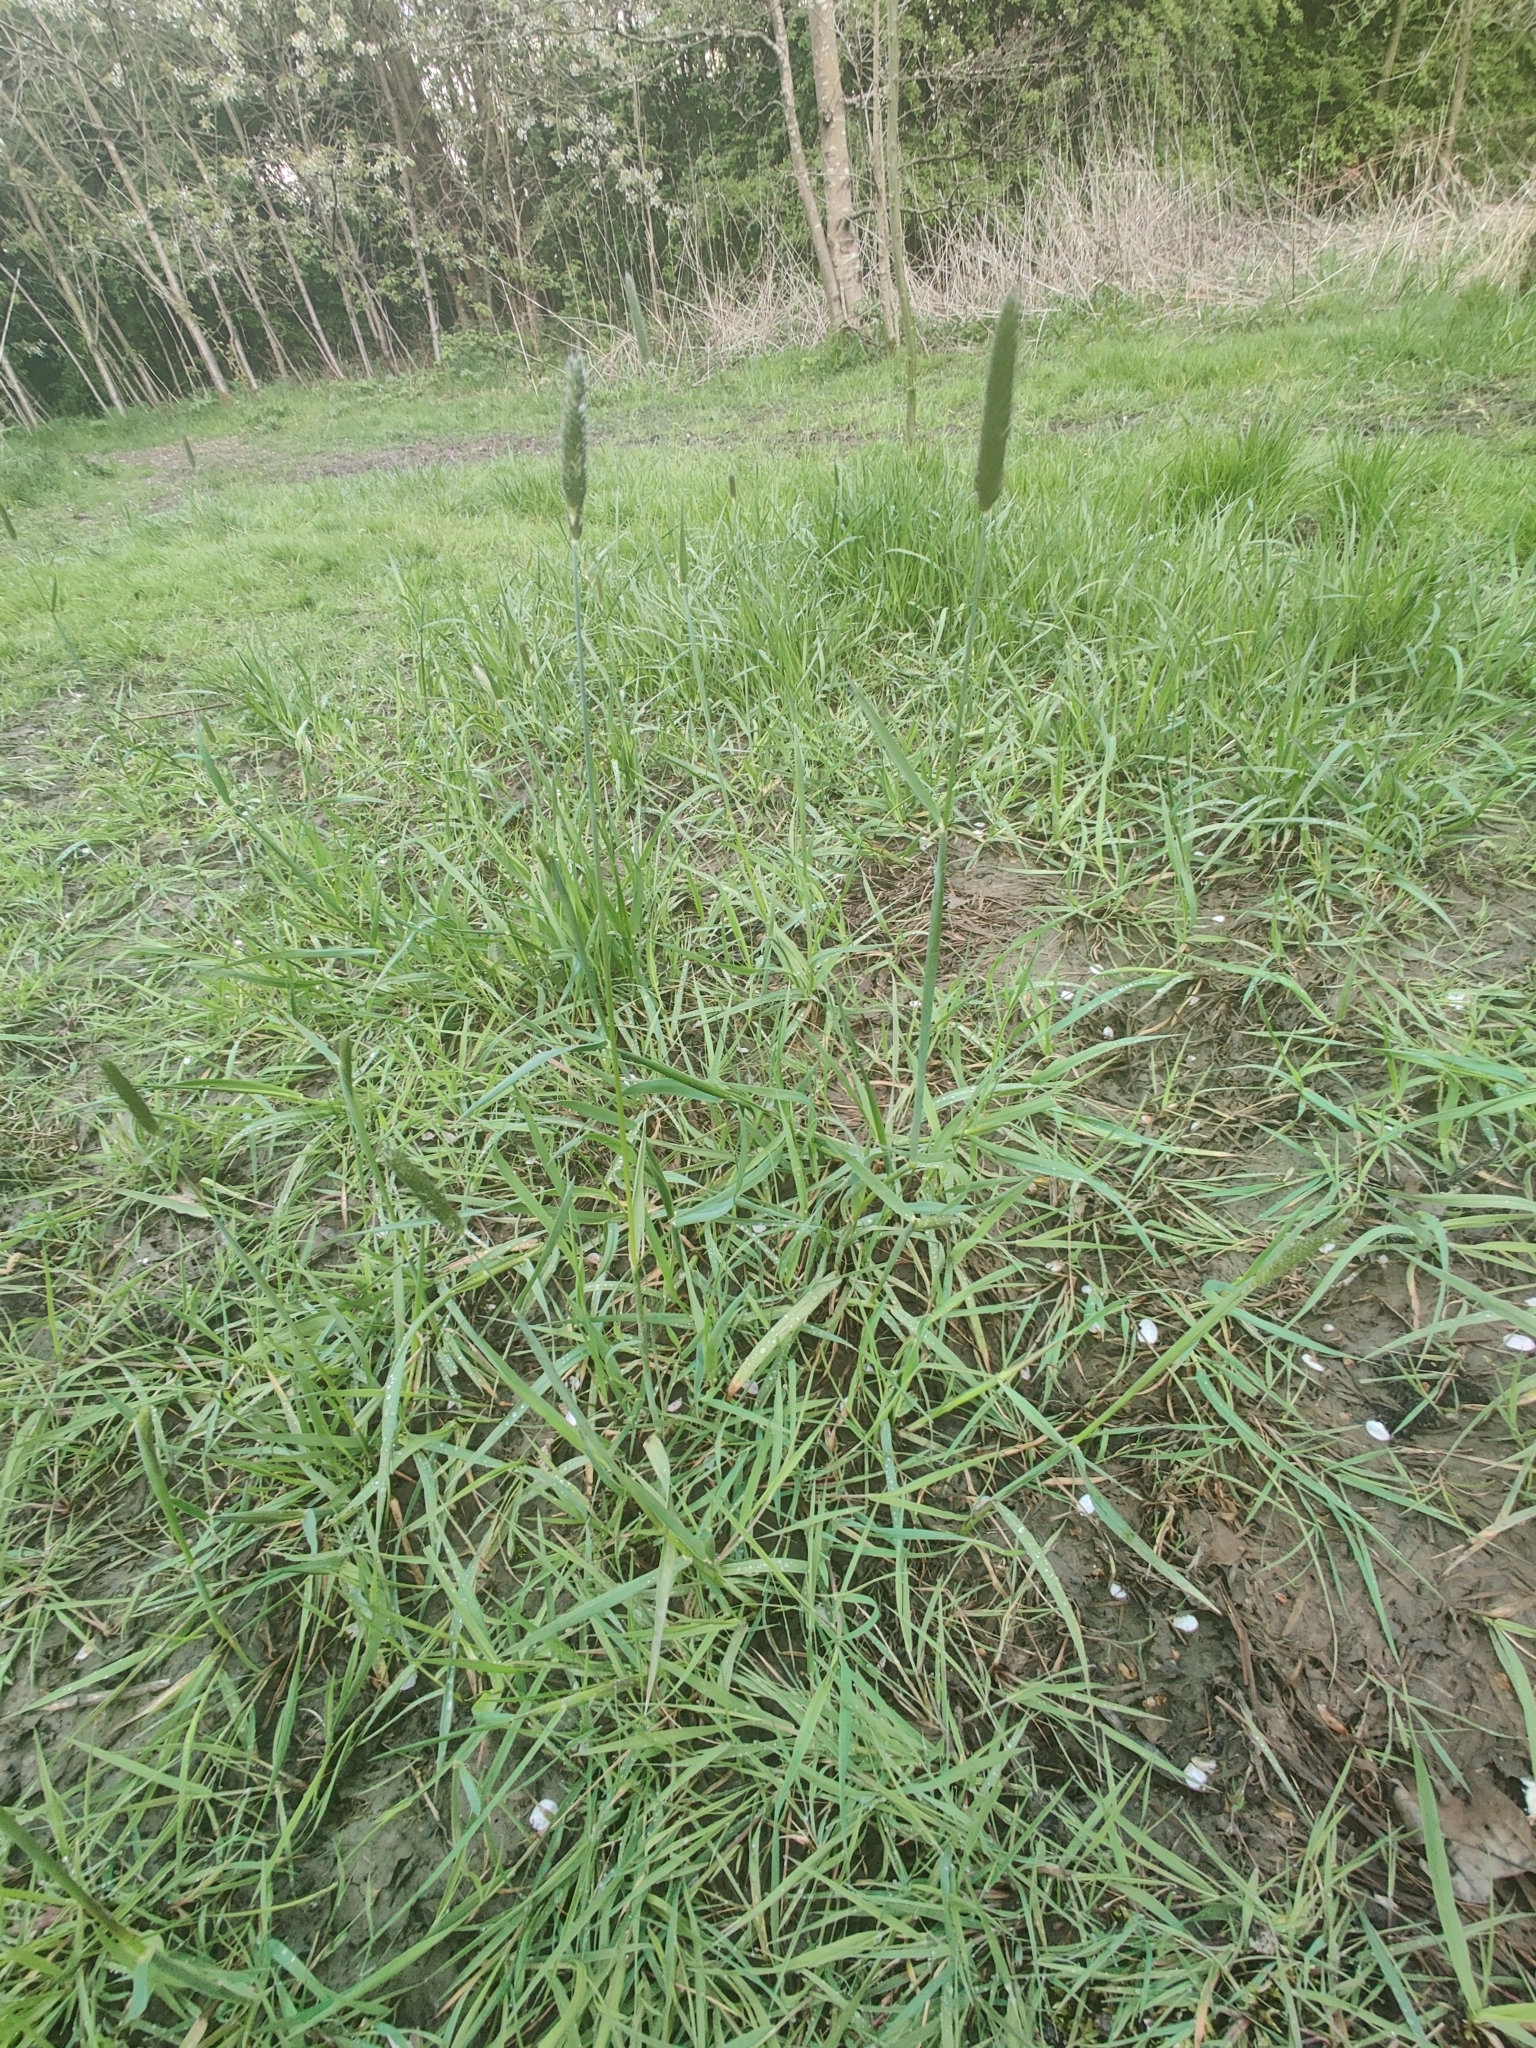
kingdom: Plantae
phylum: Tracheophyta
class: Liliopsida
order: Poales
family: Poaceae
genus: Alopecurus
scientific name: Alopecurus pratensis
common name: Meadow foxtail
